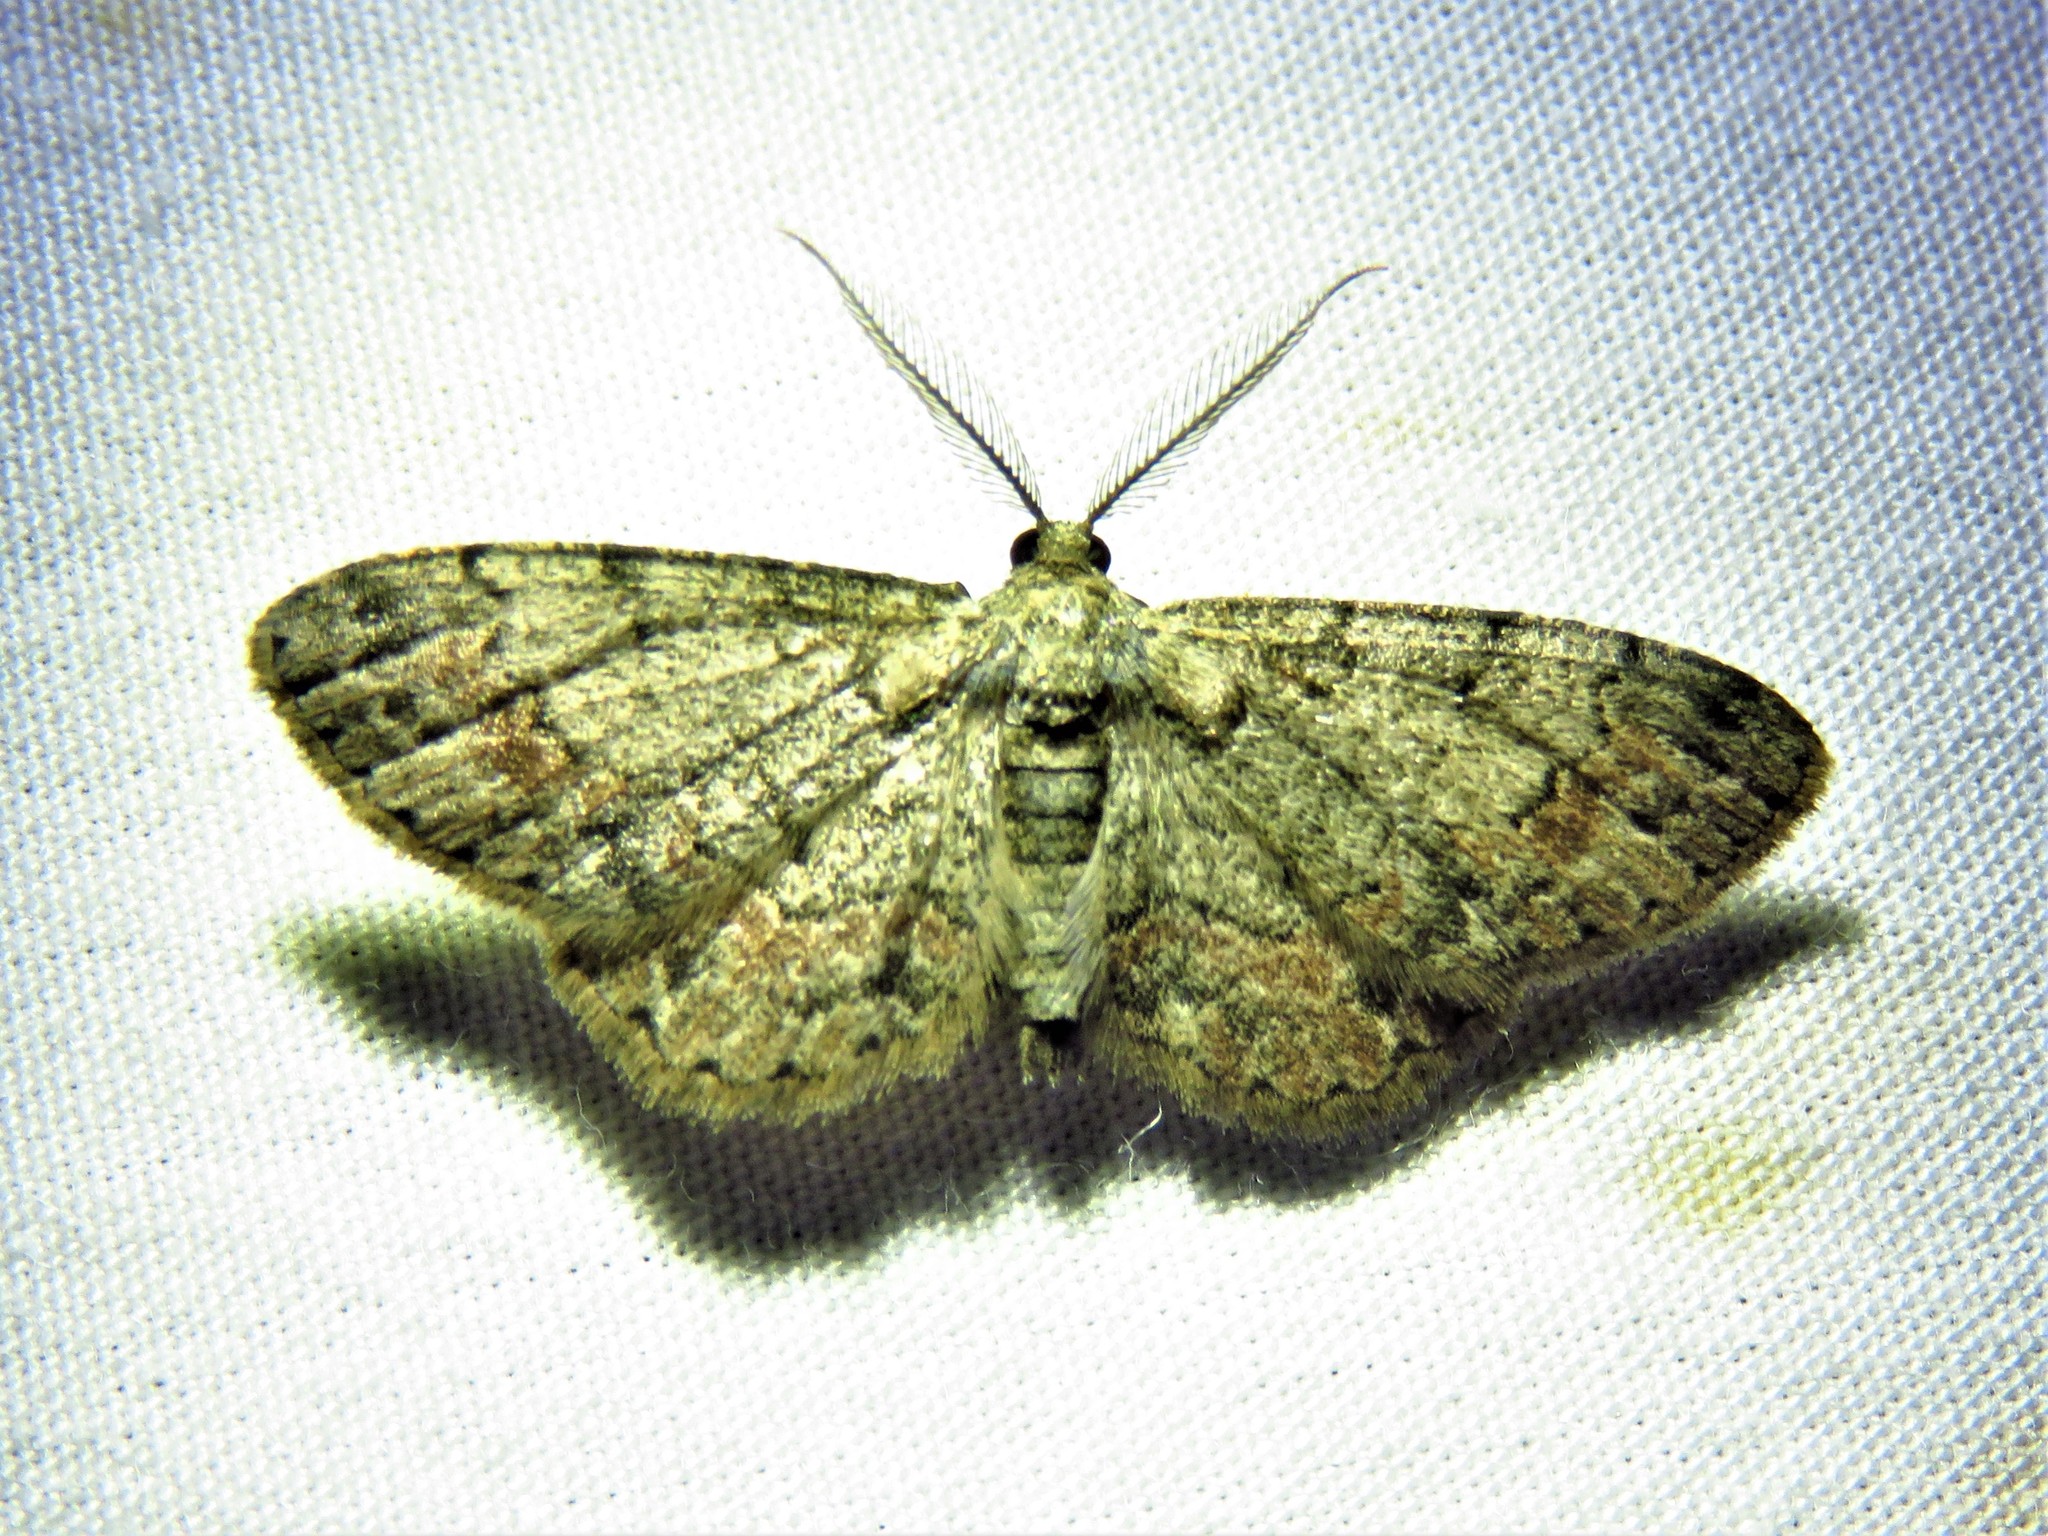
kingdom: Animalia
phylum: Arthropoda
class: Insecta
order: Lepidoptera
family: Geometridae
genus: Glenoides
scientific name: Glenoides texanaria
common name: Texas gray
